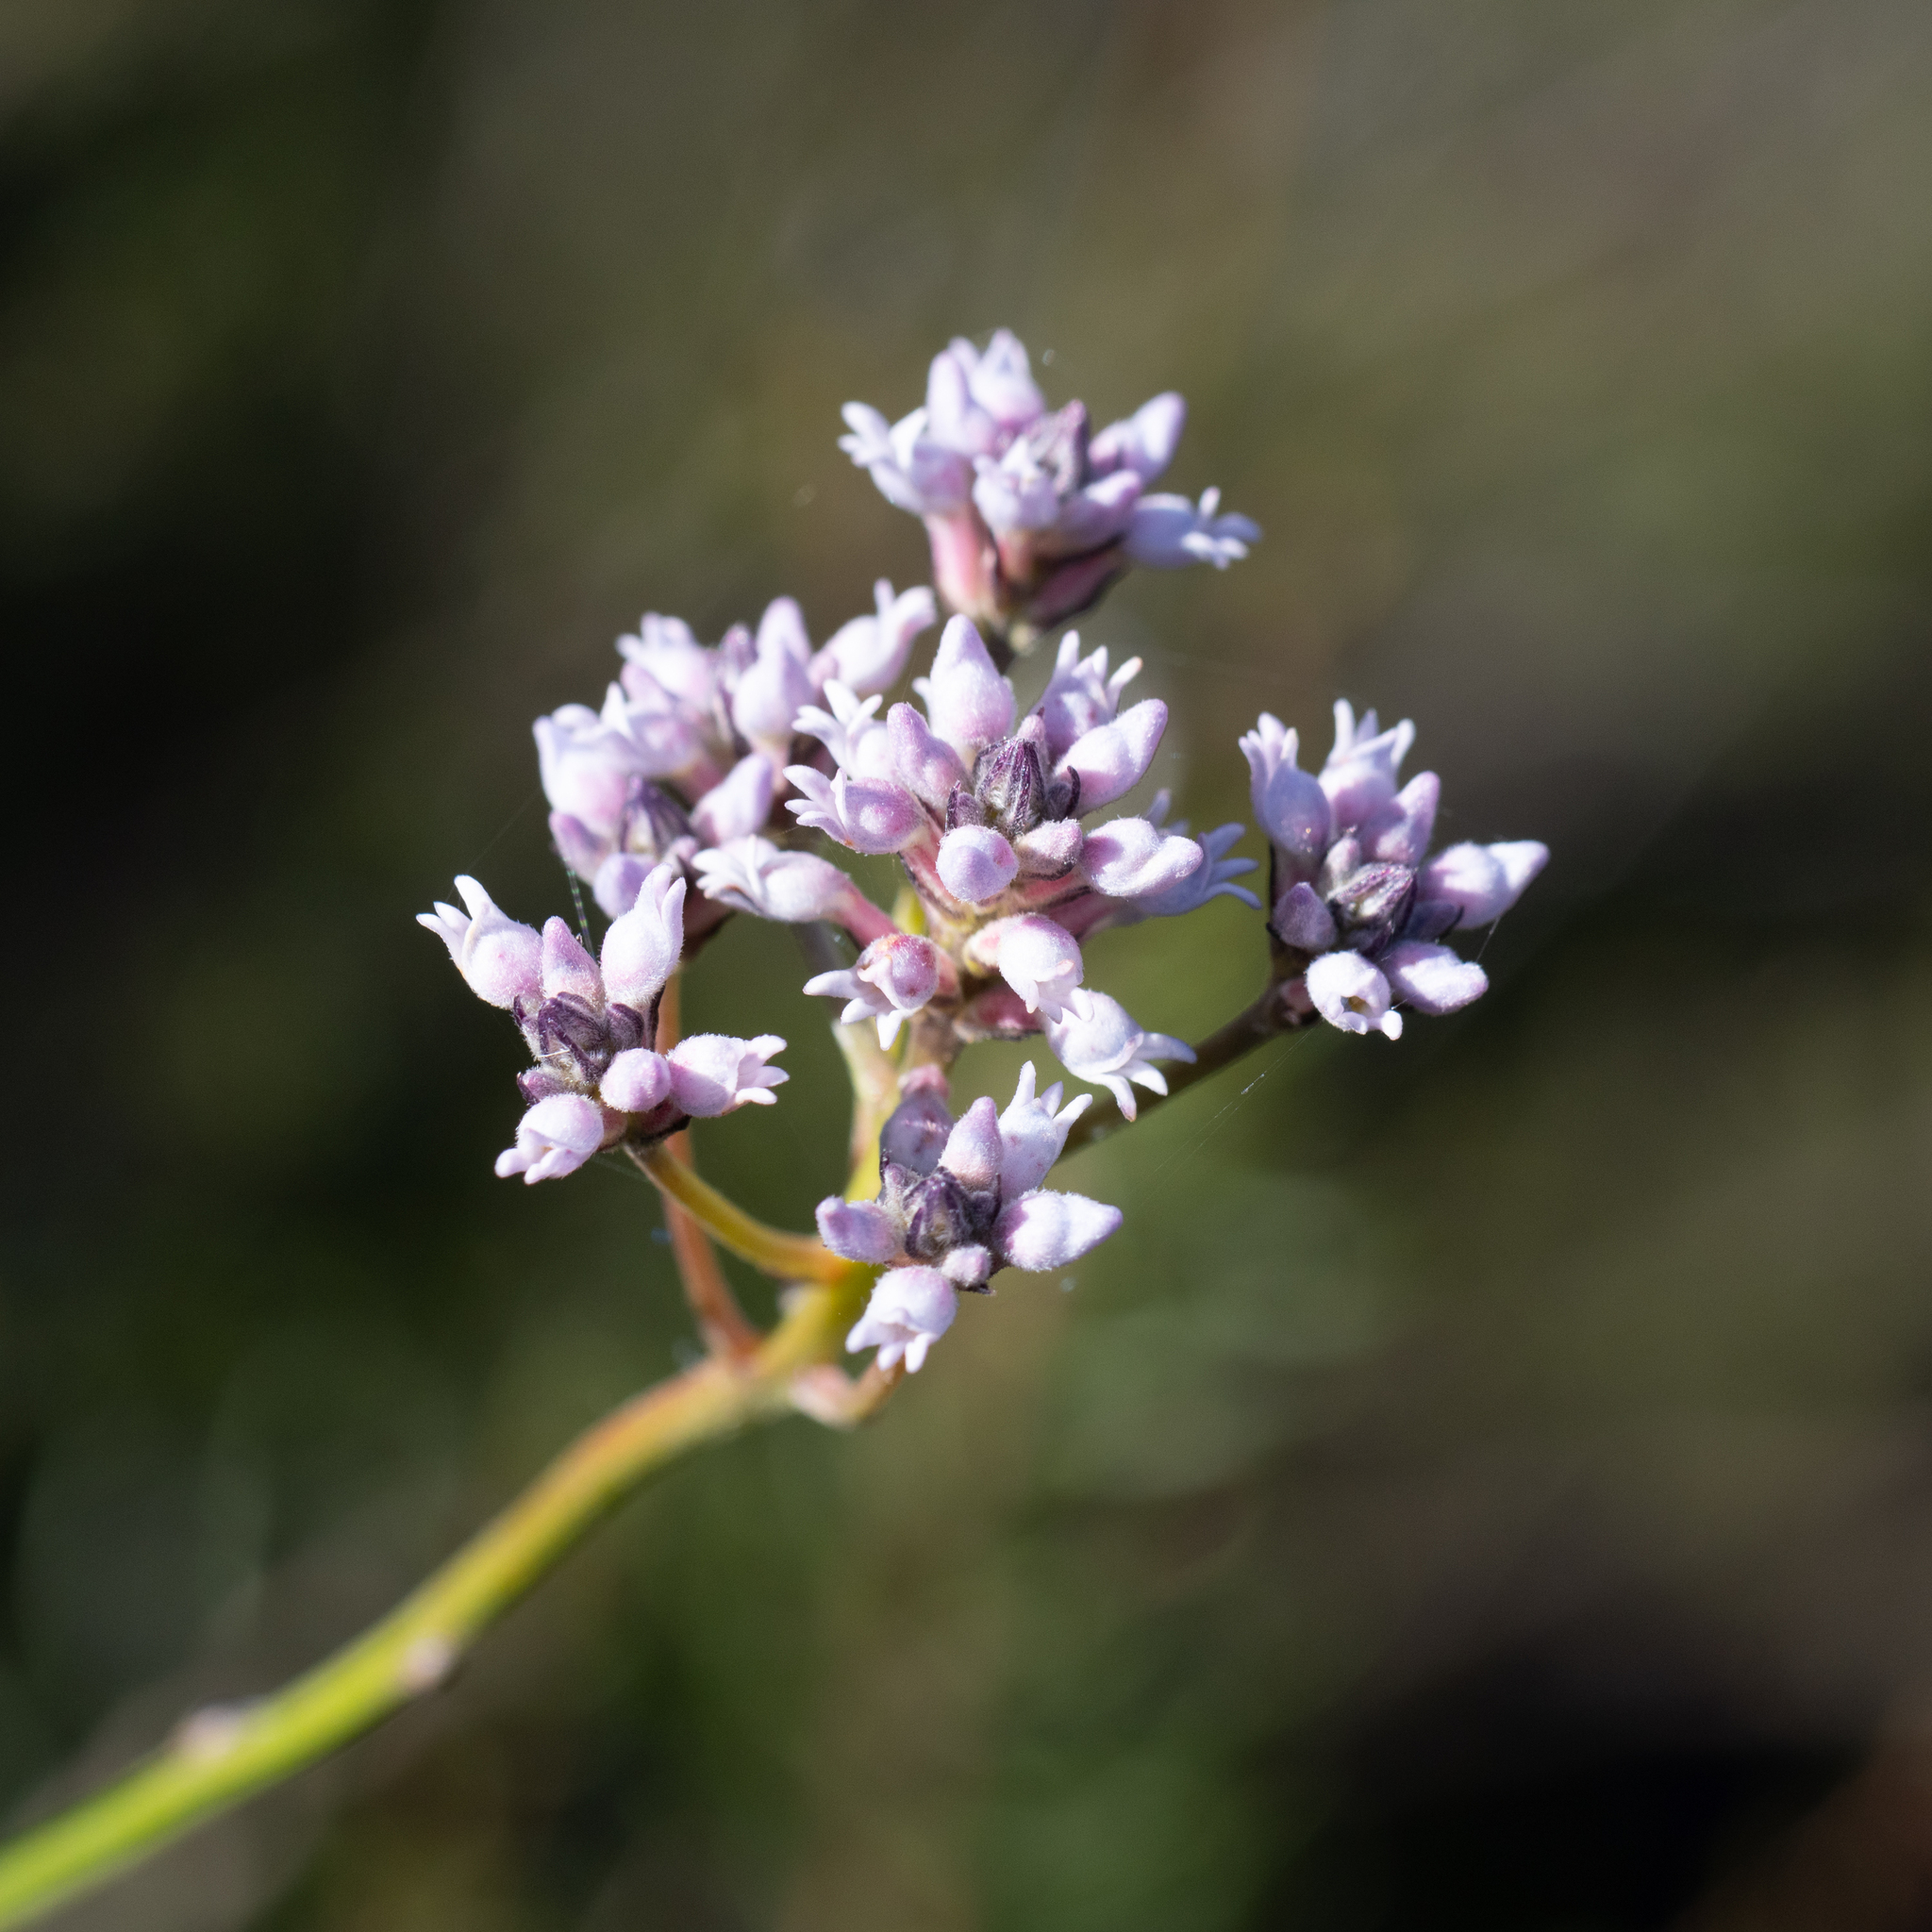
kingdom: Plantae
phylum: Tracheophyta
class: Magnoliopsida
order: Proteales
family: Proteaceae
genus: Conospermum
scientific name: Conospermum patens
